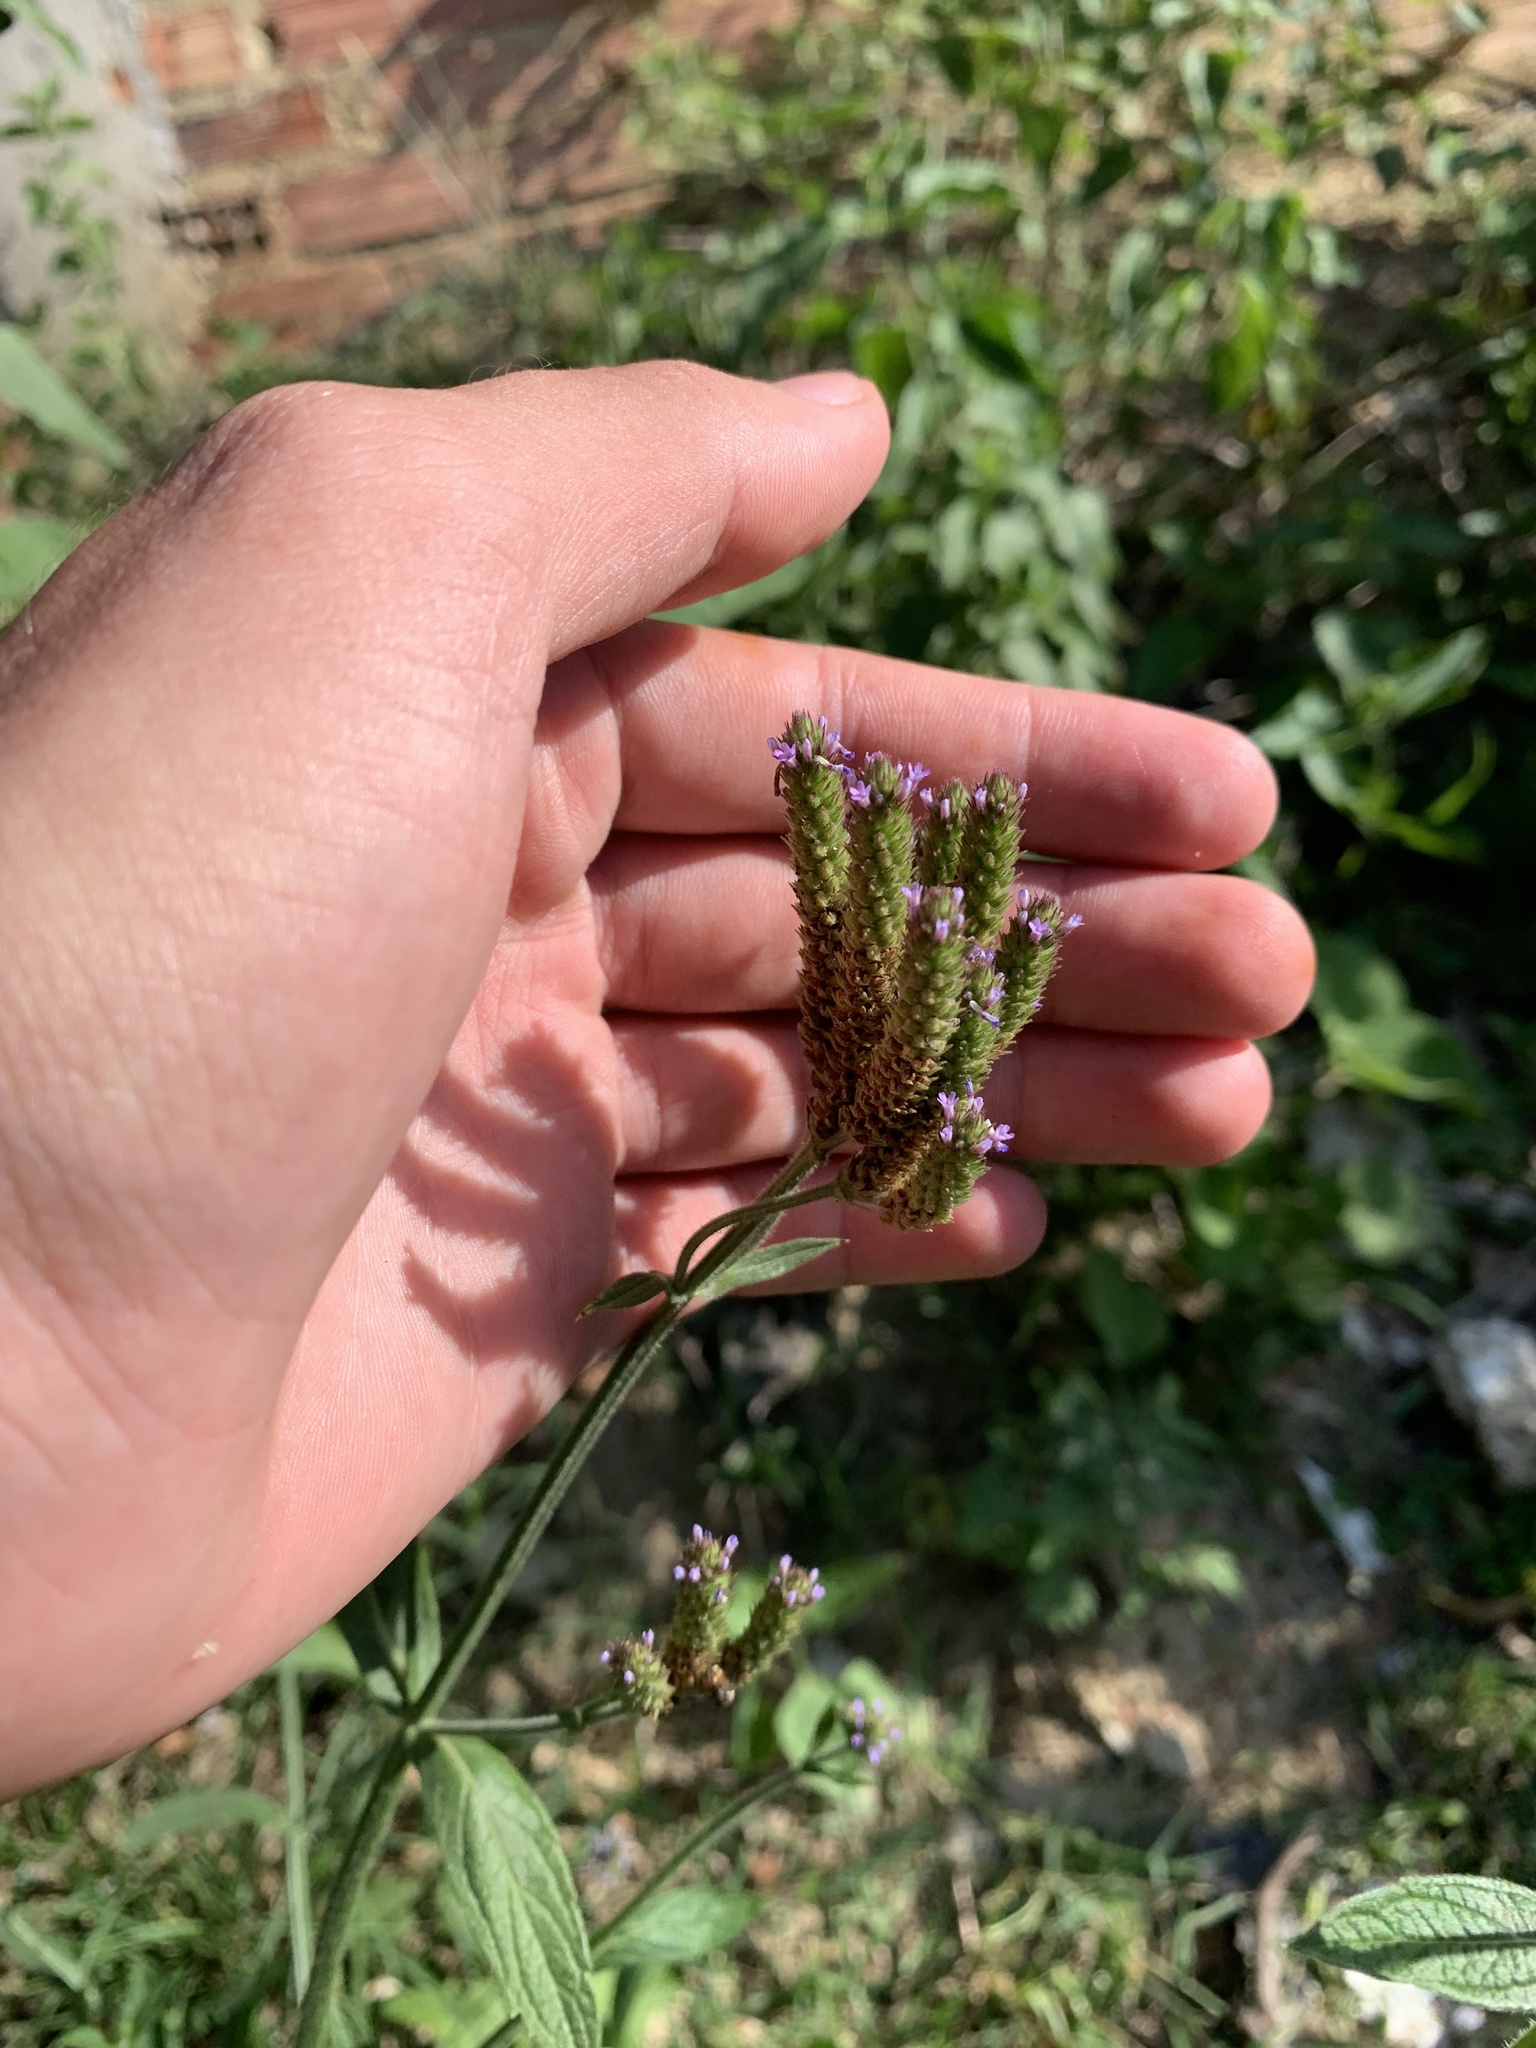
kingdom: Plantae
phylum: Tracheophyta
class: Magnoliopsida
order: Lamiales
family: Verbenaceae
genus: Verbena
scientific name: Verbena brasiliensis
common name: Brazilian vervain
